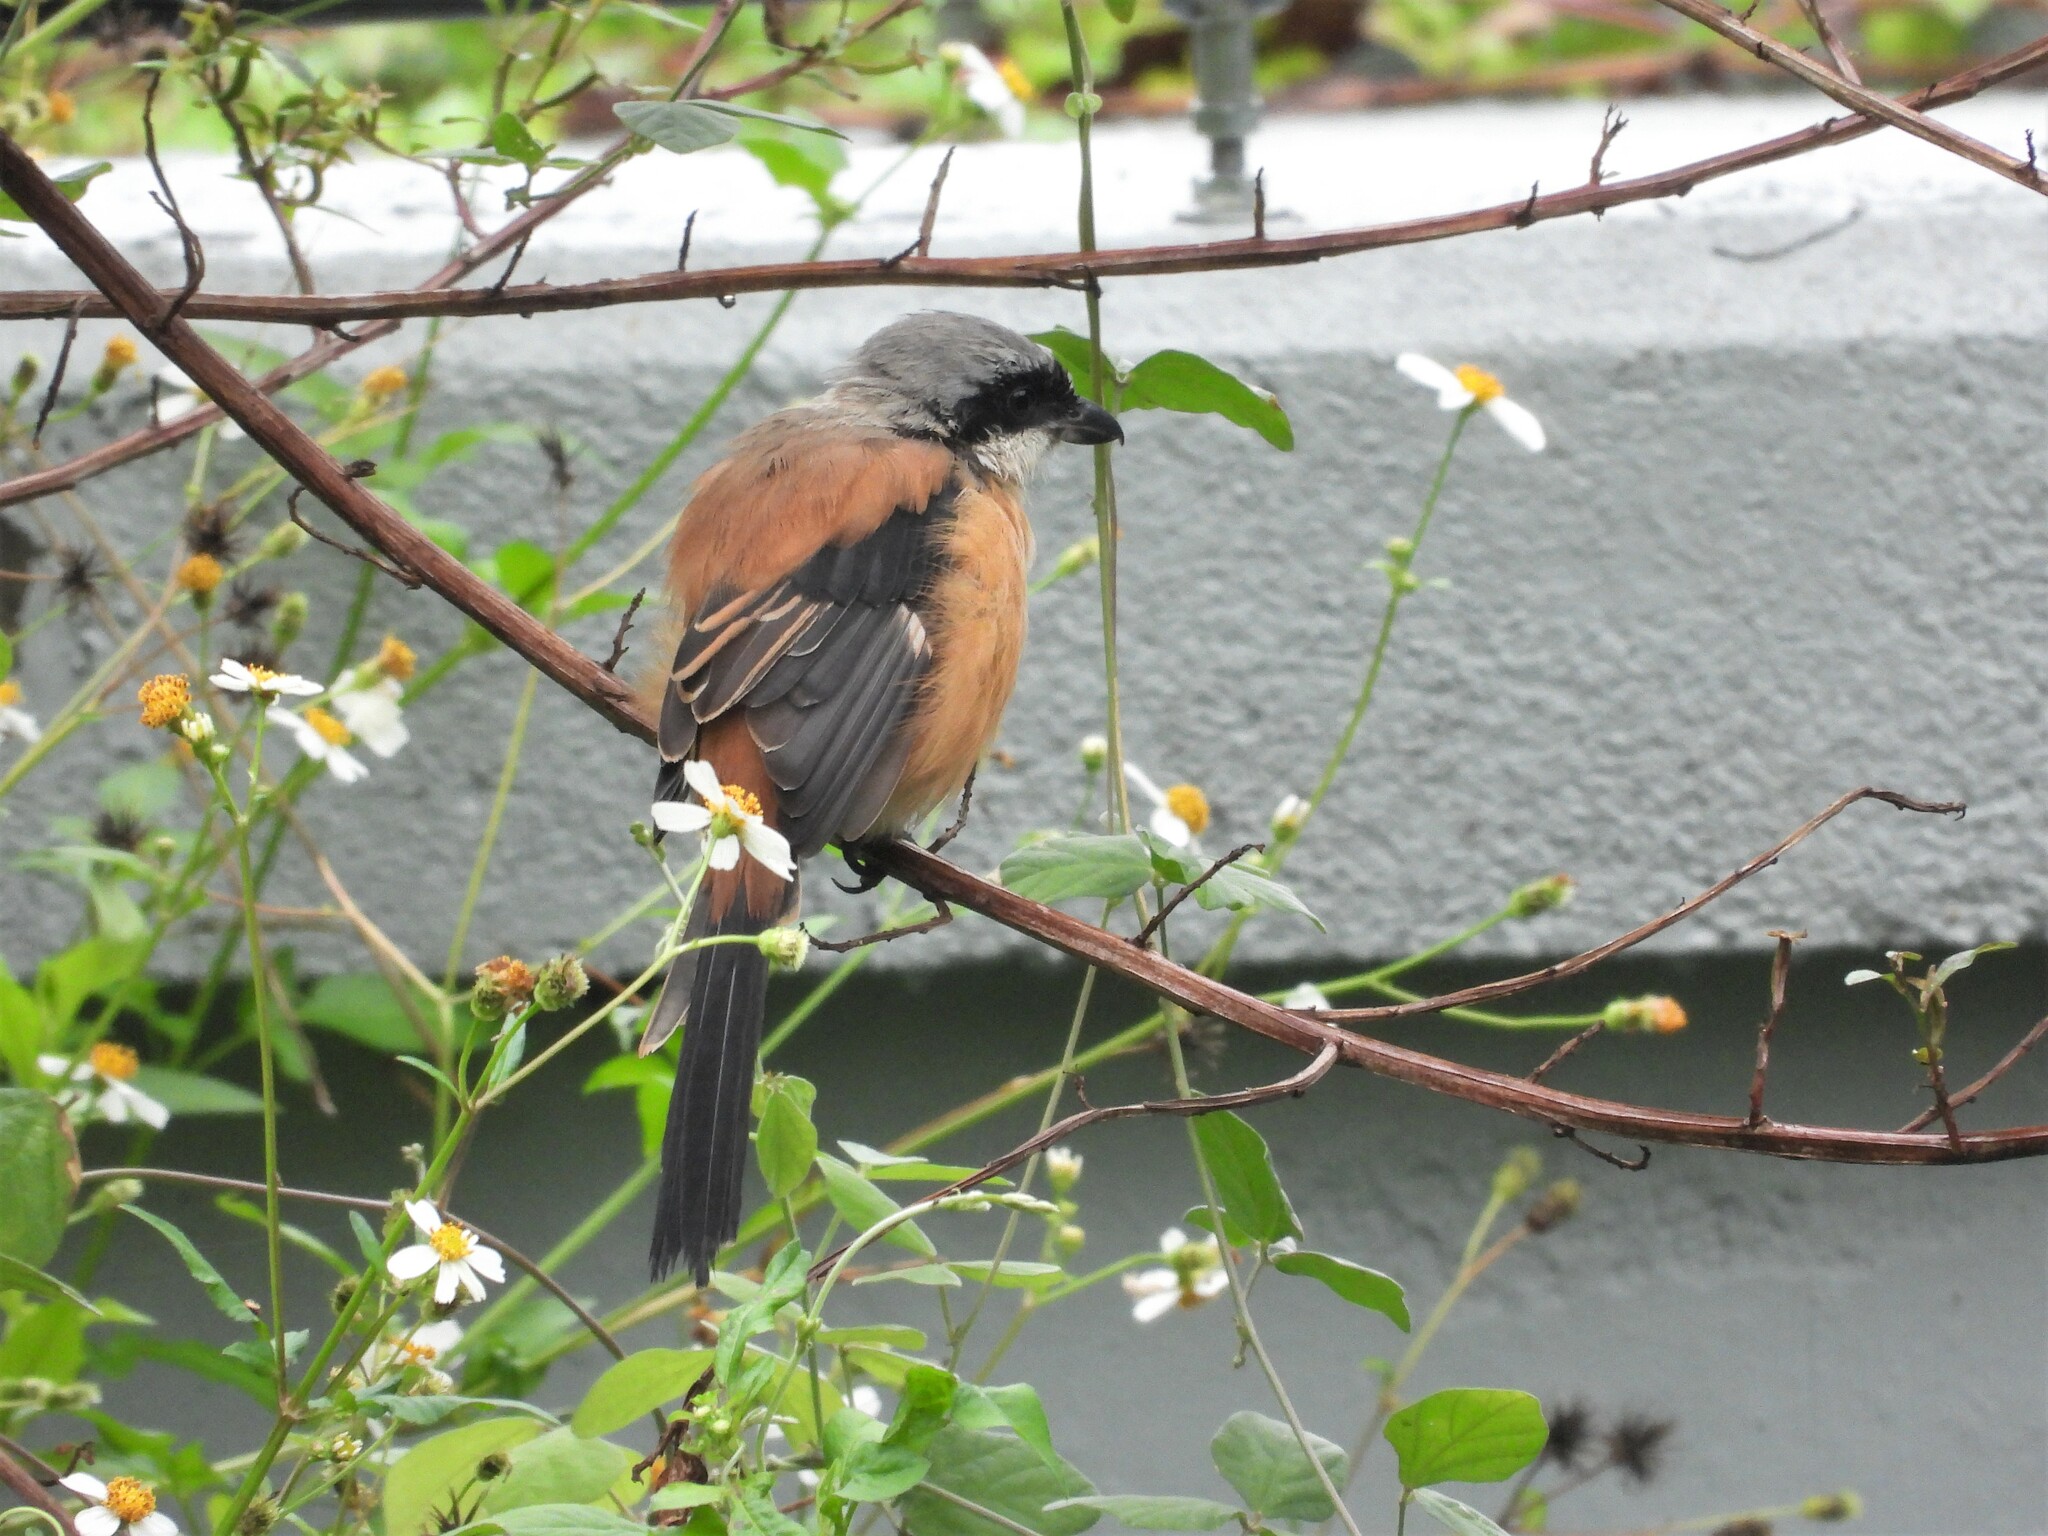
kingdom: Animalia
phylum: Chordata
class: Aves
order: Passeriformes
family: Laniidae
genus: Lanius
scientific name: Lanius schach
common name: Long-tailed shrike
